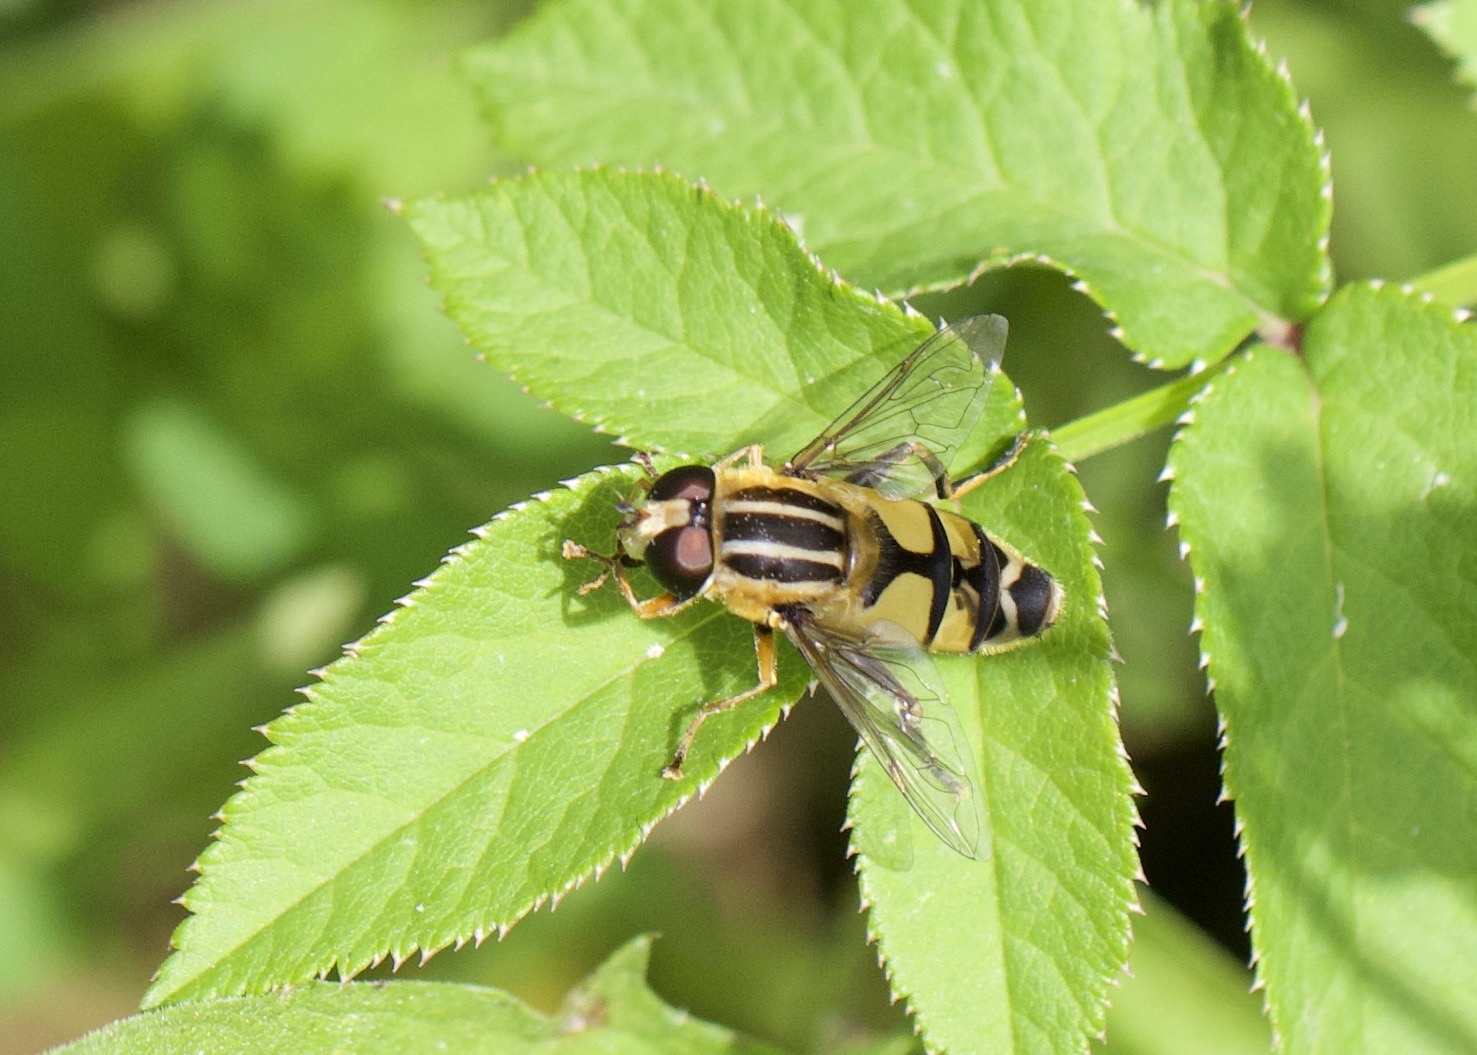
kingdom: Animalia
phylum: Arthropoda
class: Insecta
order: Diptera
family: Syrphidae
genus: Helophilus
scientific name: Helophilus trivittatus
